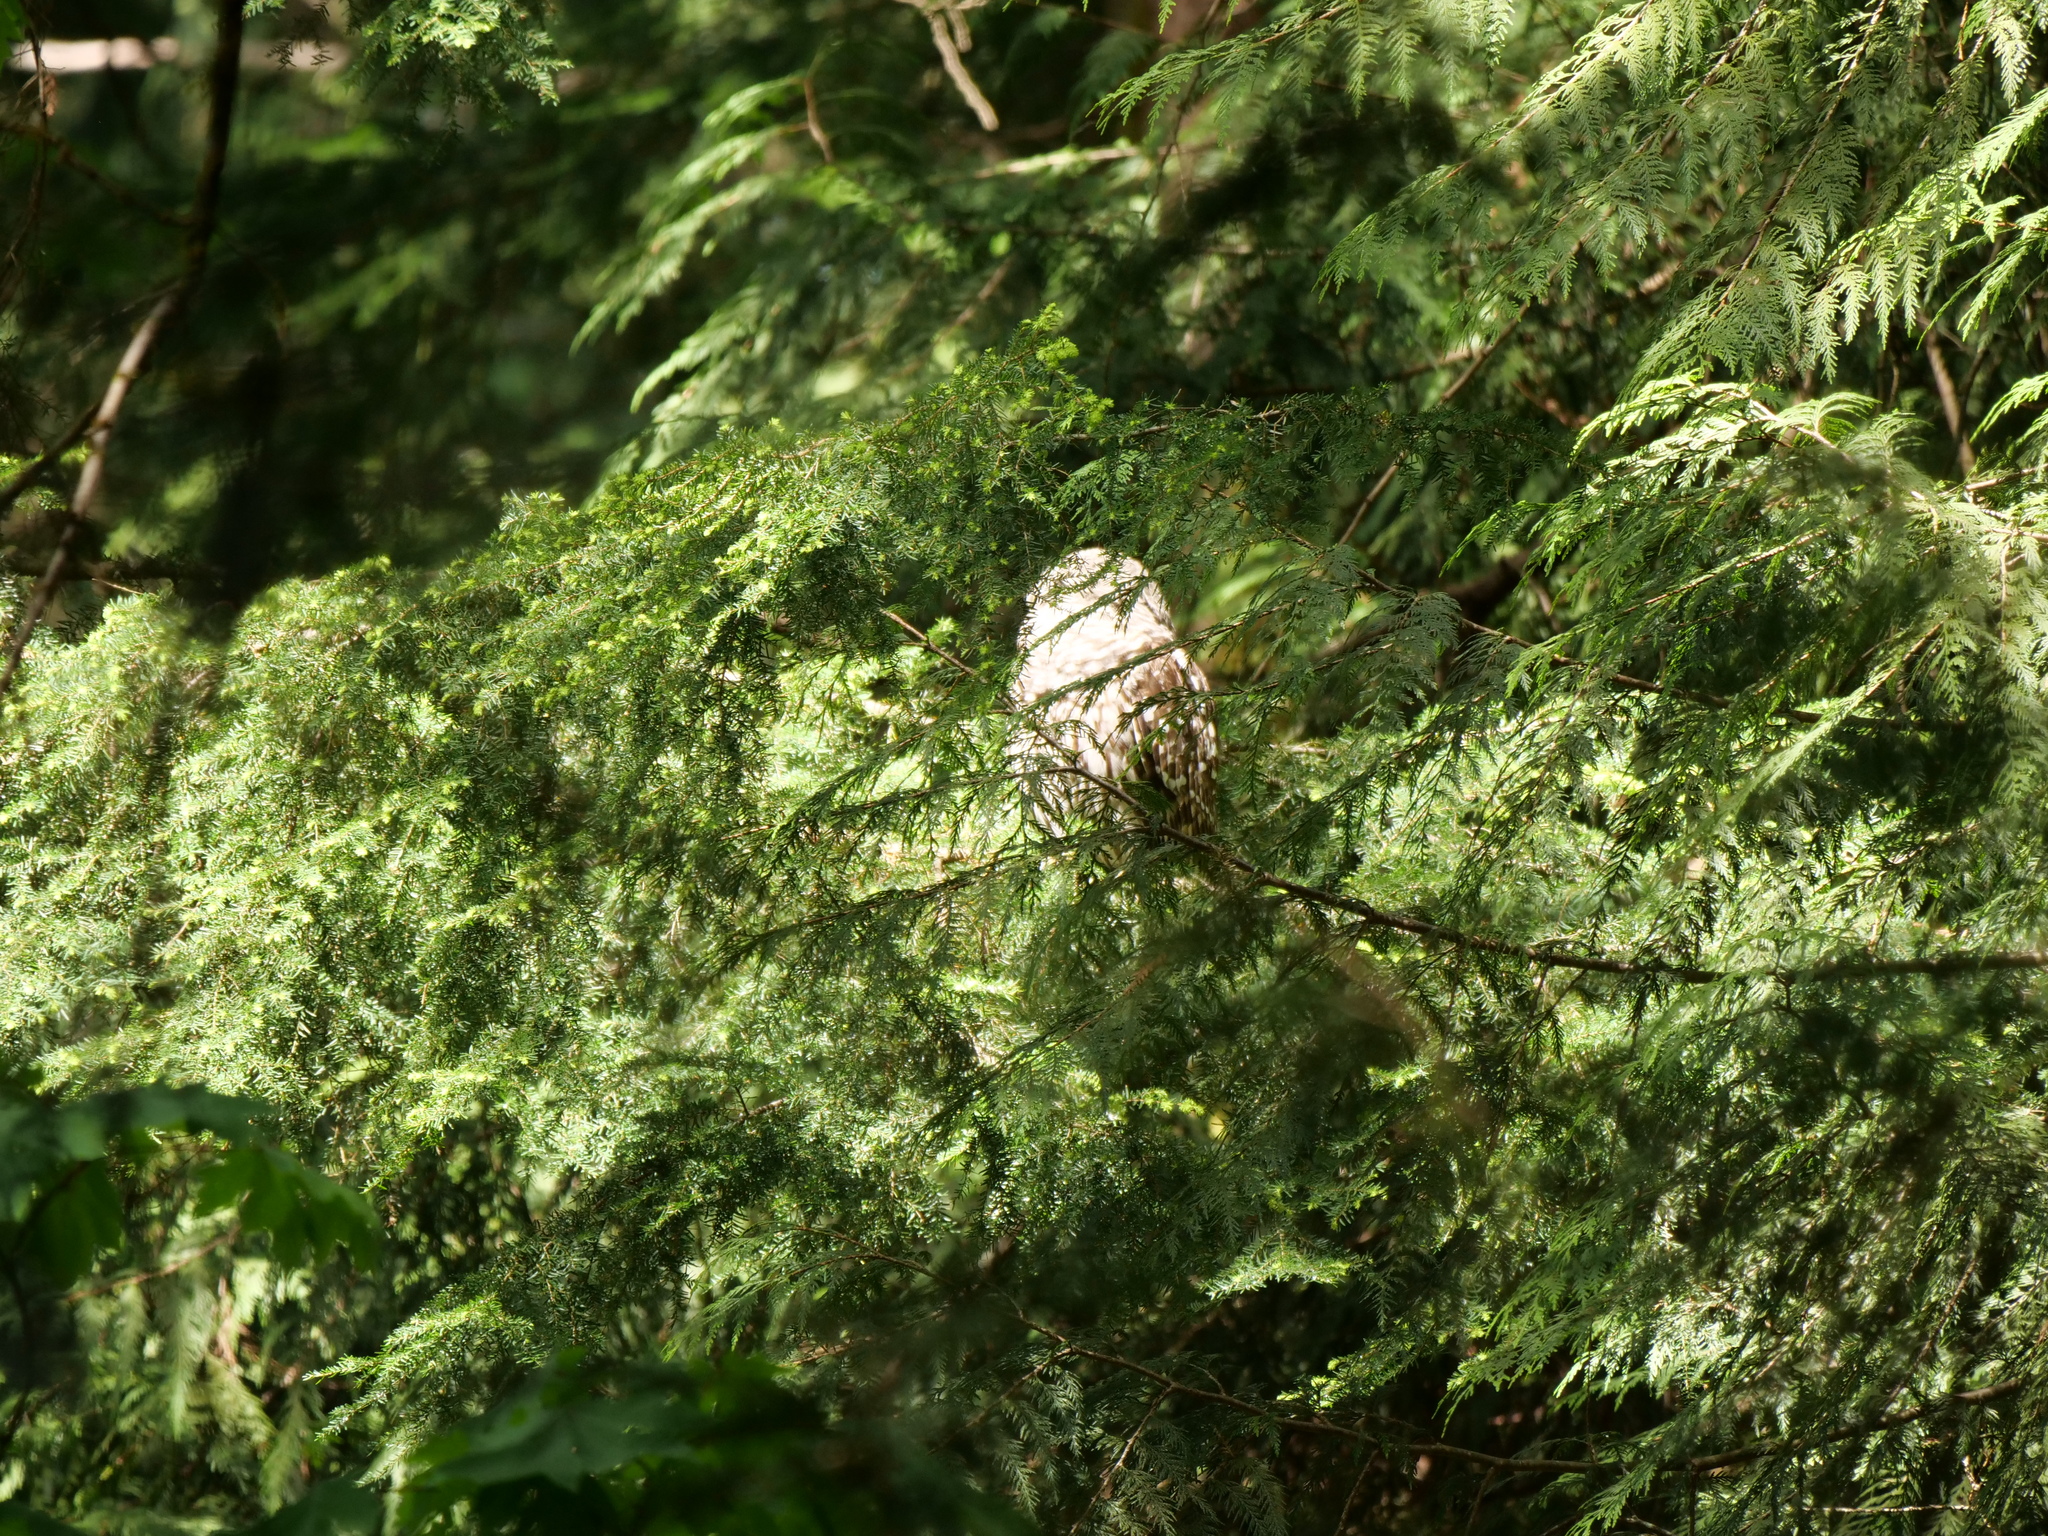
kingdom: Animalia
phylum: Chordata
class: Aves
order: Strigiformes
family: Strigidae
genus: Strix
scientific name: Strix varia
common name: Barred owl
